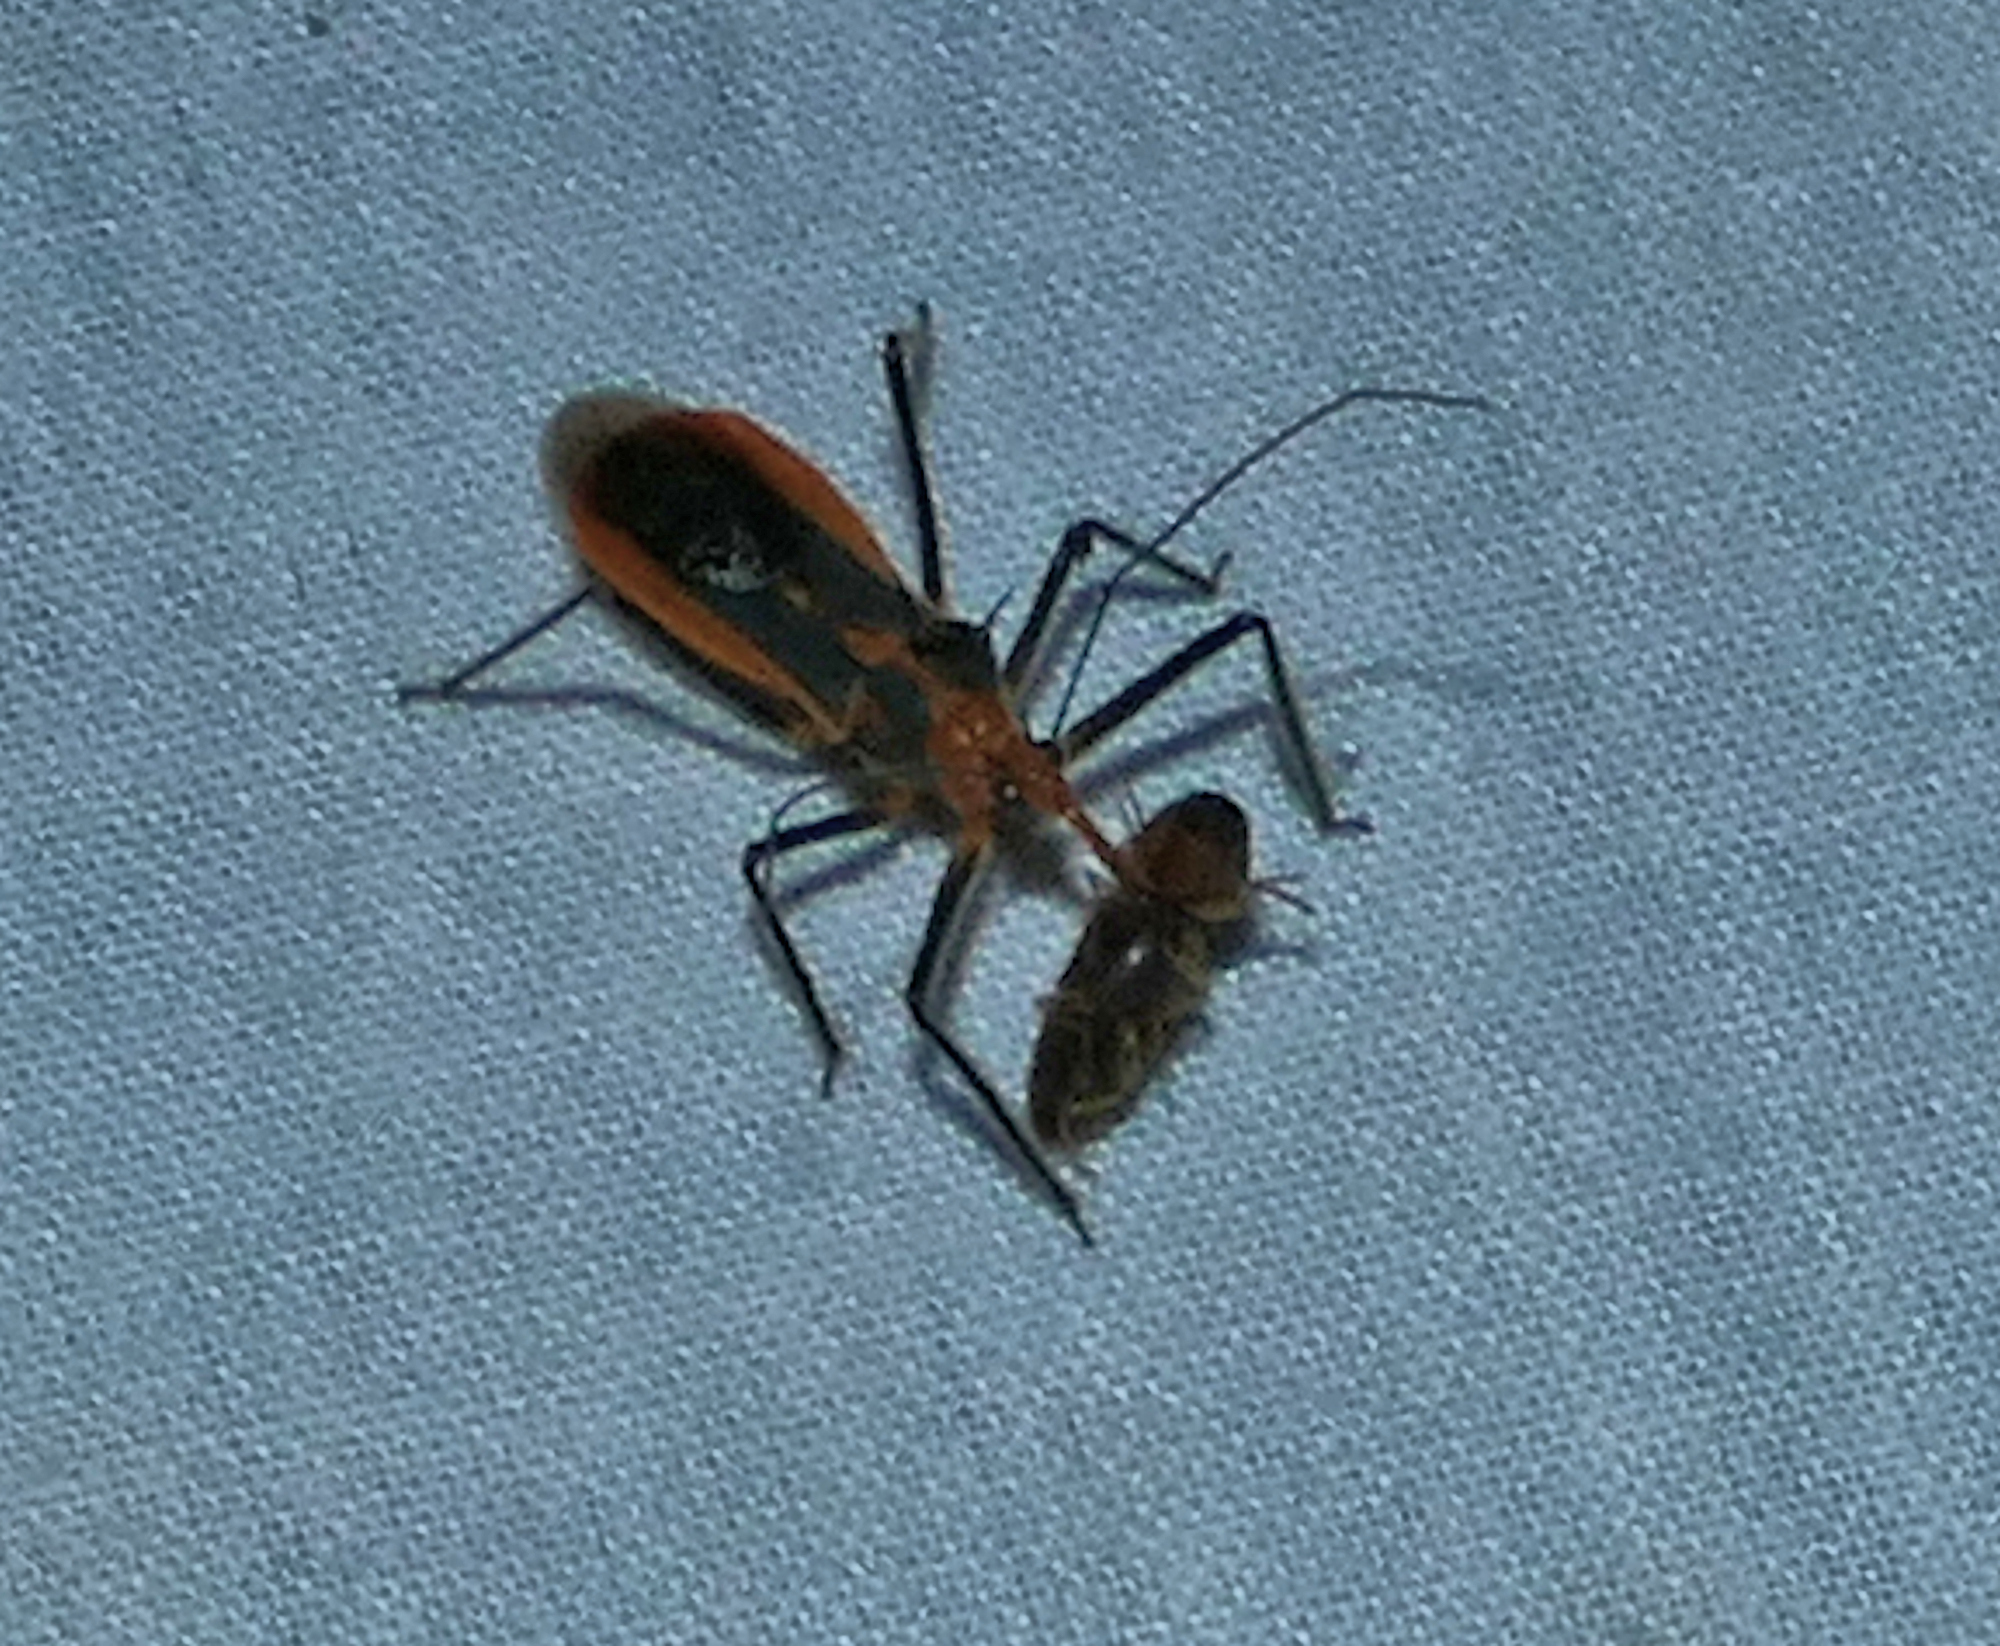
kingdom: Animalia
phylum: Arthropoda
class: Insecta
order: Hemiptera
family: Reduviidae
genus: Repipta
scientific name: Repipta taurus
